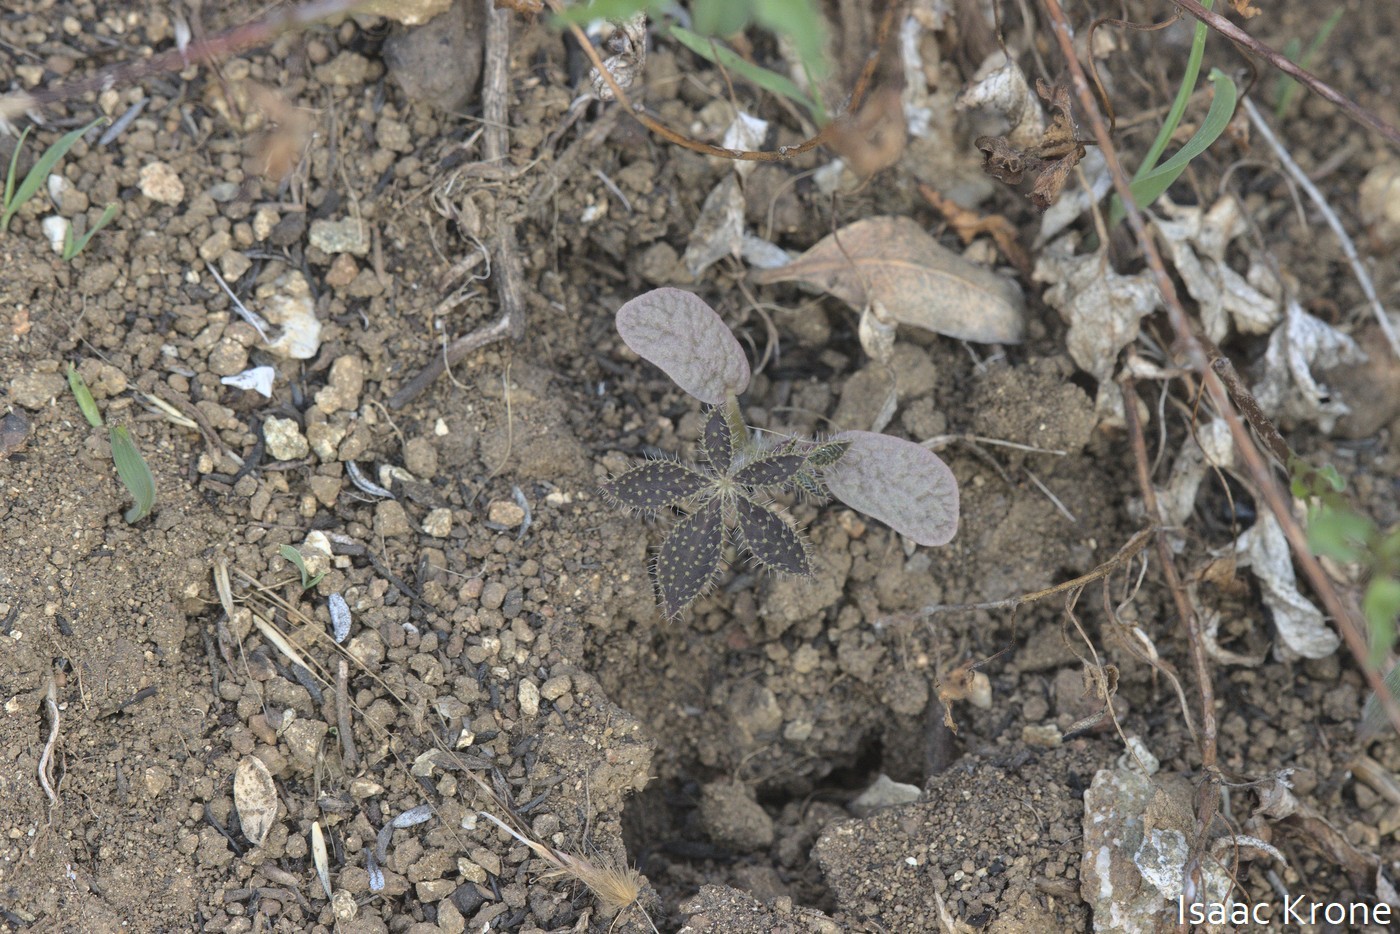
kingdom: Plantae
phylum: Tracheophyta
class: Magnoliopsida
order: Fabales
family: Fabaceae
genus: Lupinus
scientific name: Lupinus hirsutissimus
